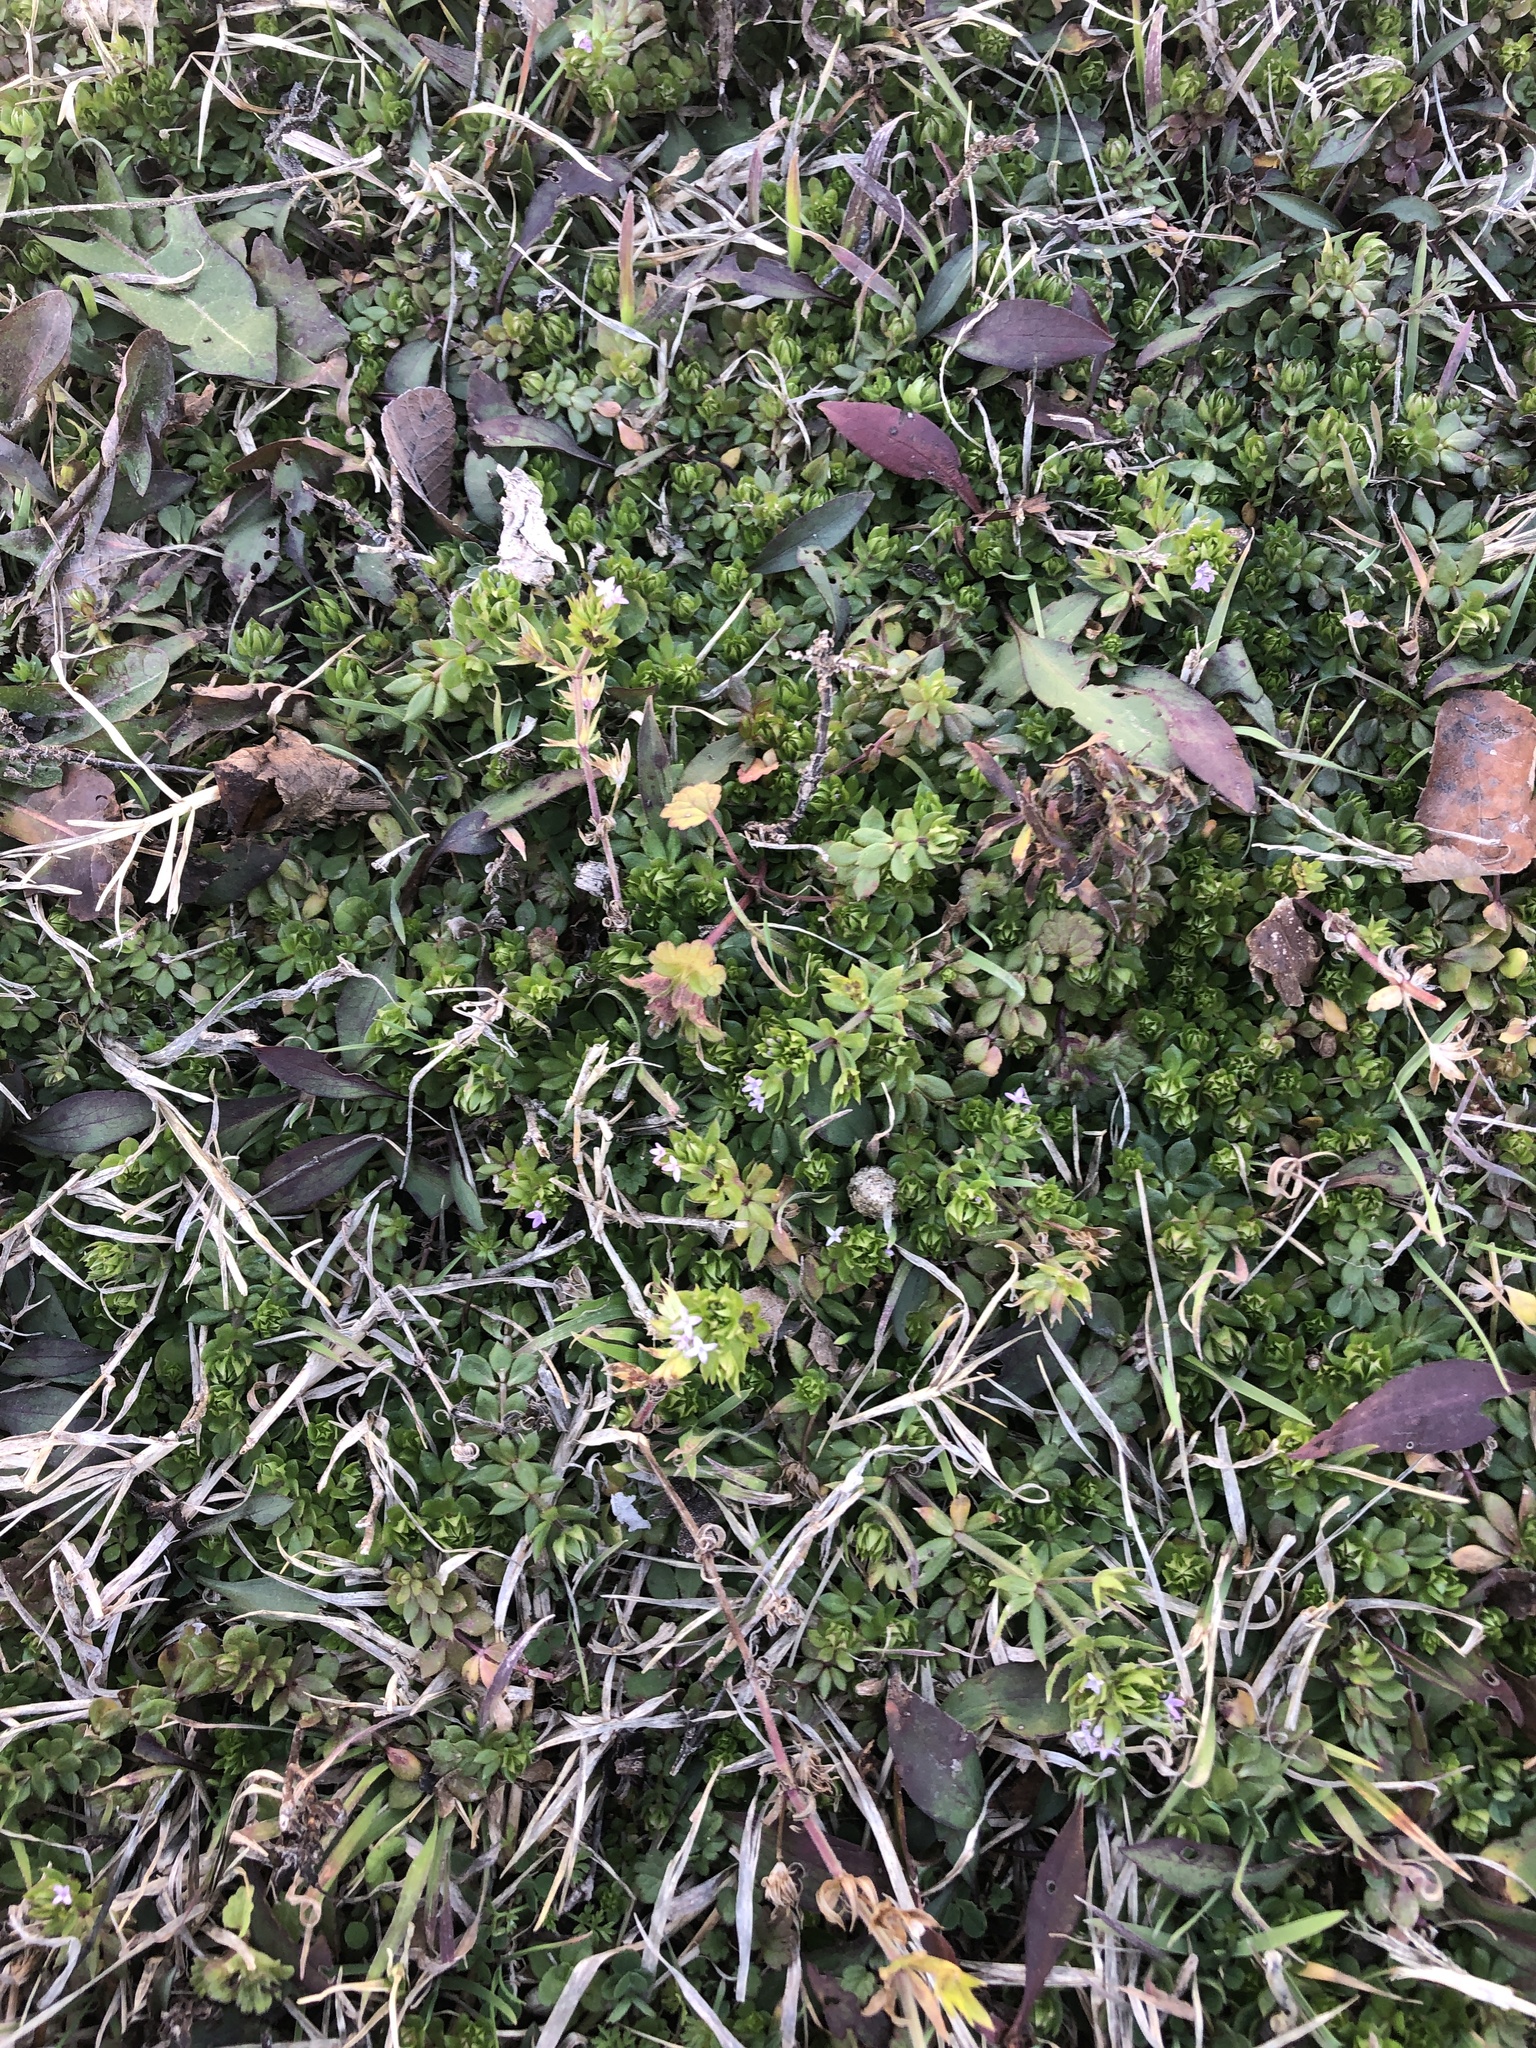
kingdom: Plantae
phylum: Tracheophyta
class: Magnoliopsida
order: Gentianales
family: Rubiaceae
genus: Sherardia
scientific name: Sherardia arvensis
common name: Field madder
